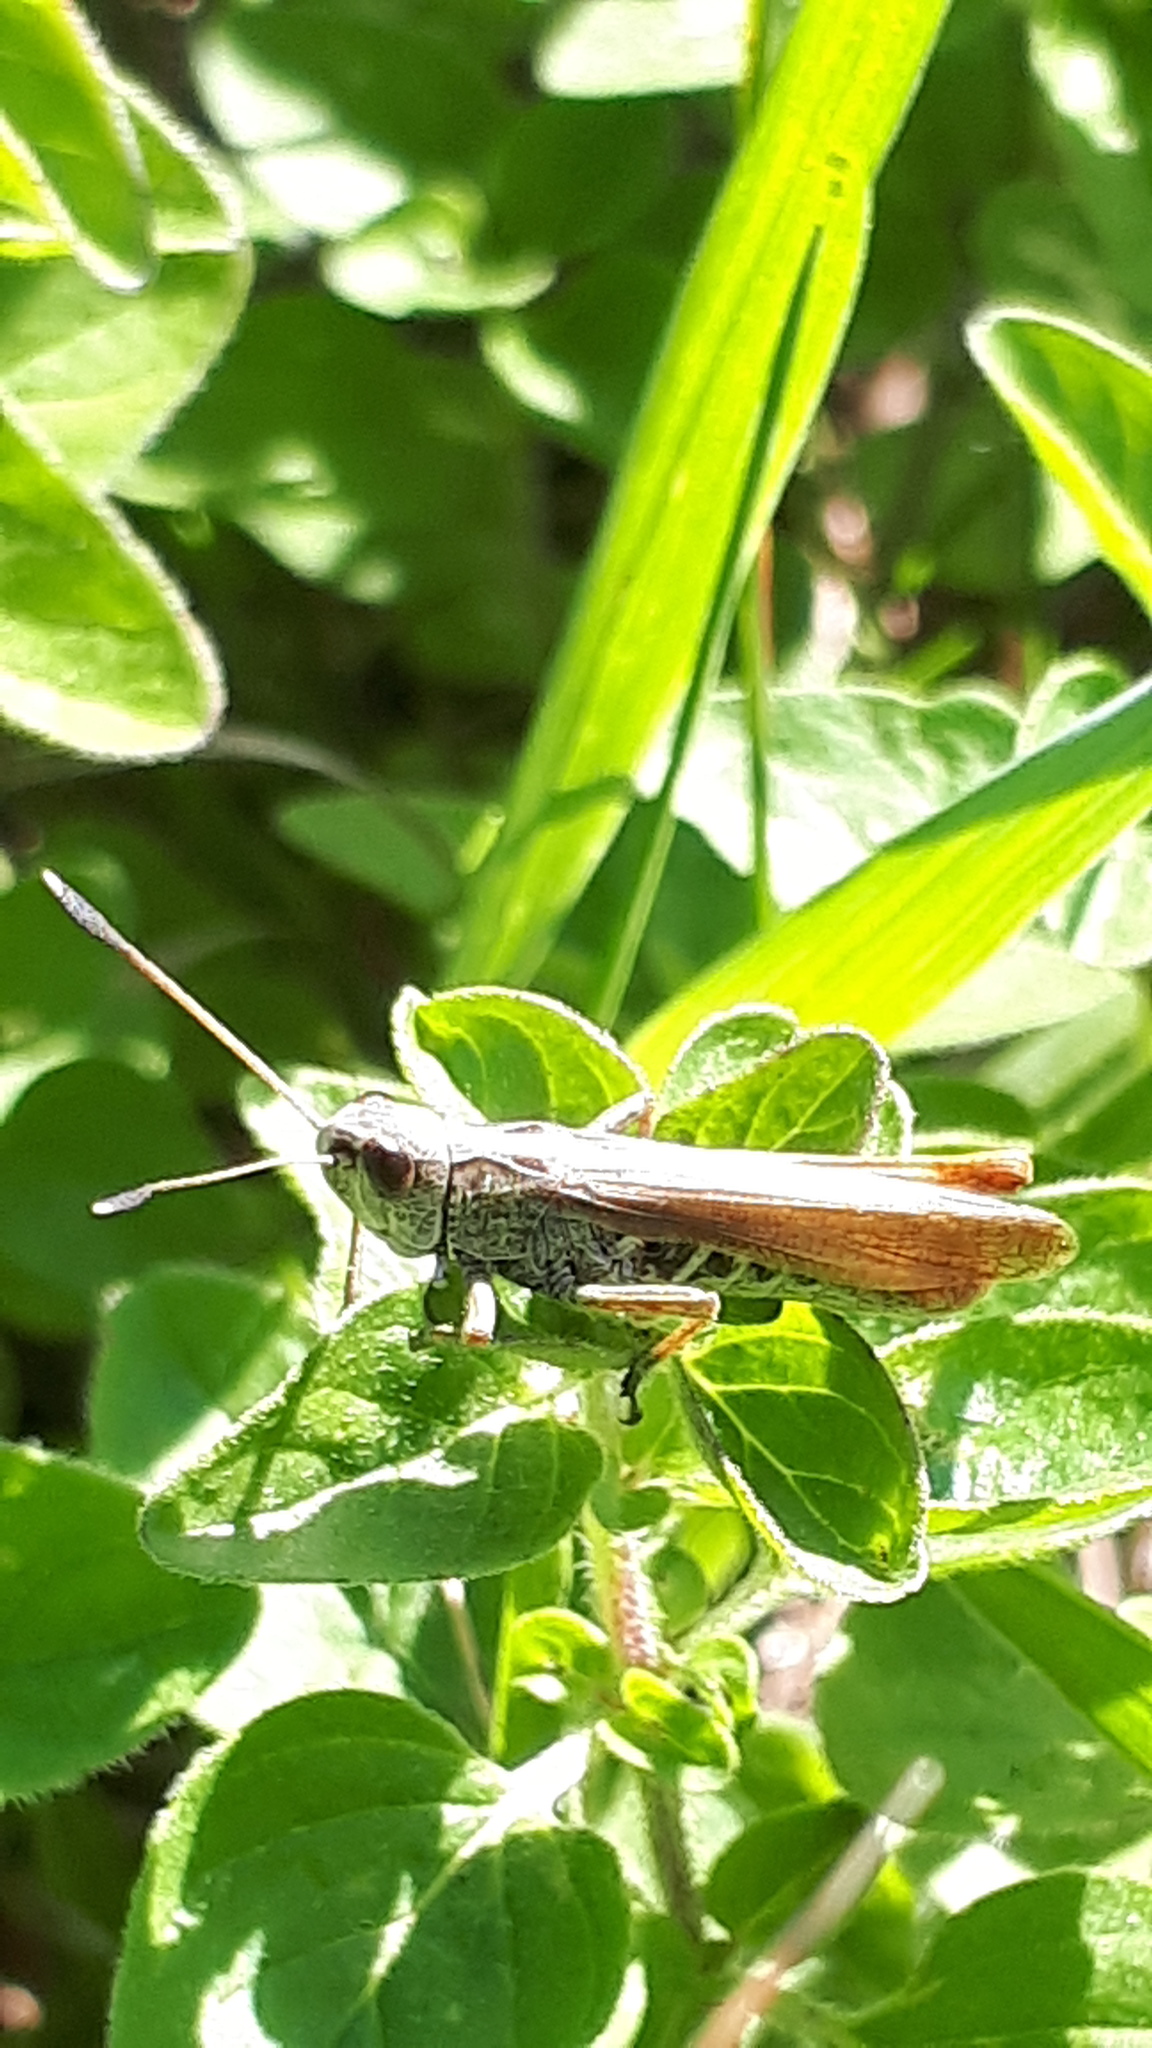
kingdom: Animalia
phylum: Arthropoda
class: Insecta
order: Orthoptera
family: Acrididae
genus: Gomphocerippus
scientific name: Gomphocerippus rufus
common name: Rufous grasshopper
